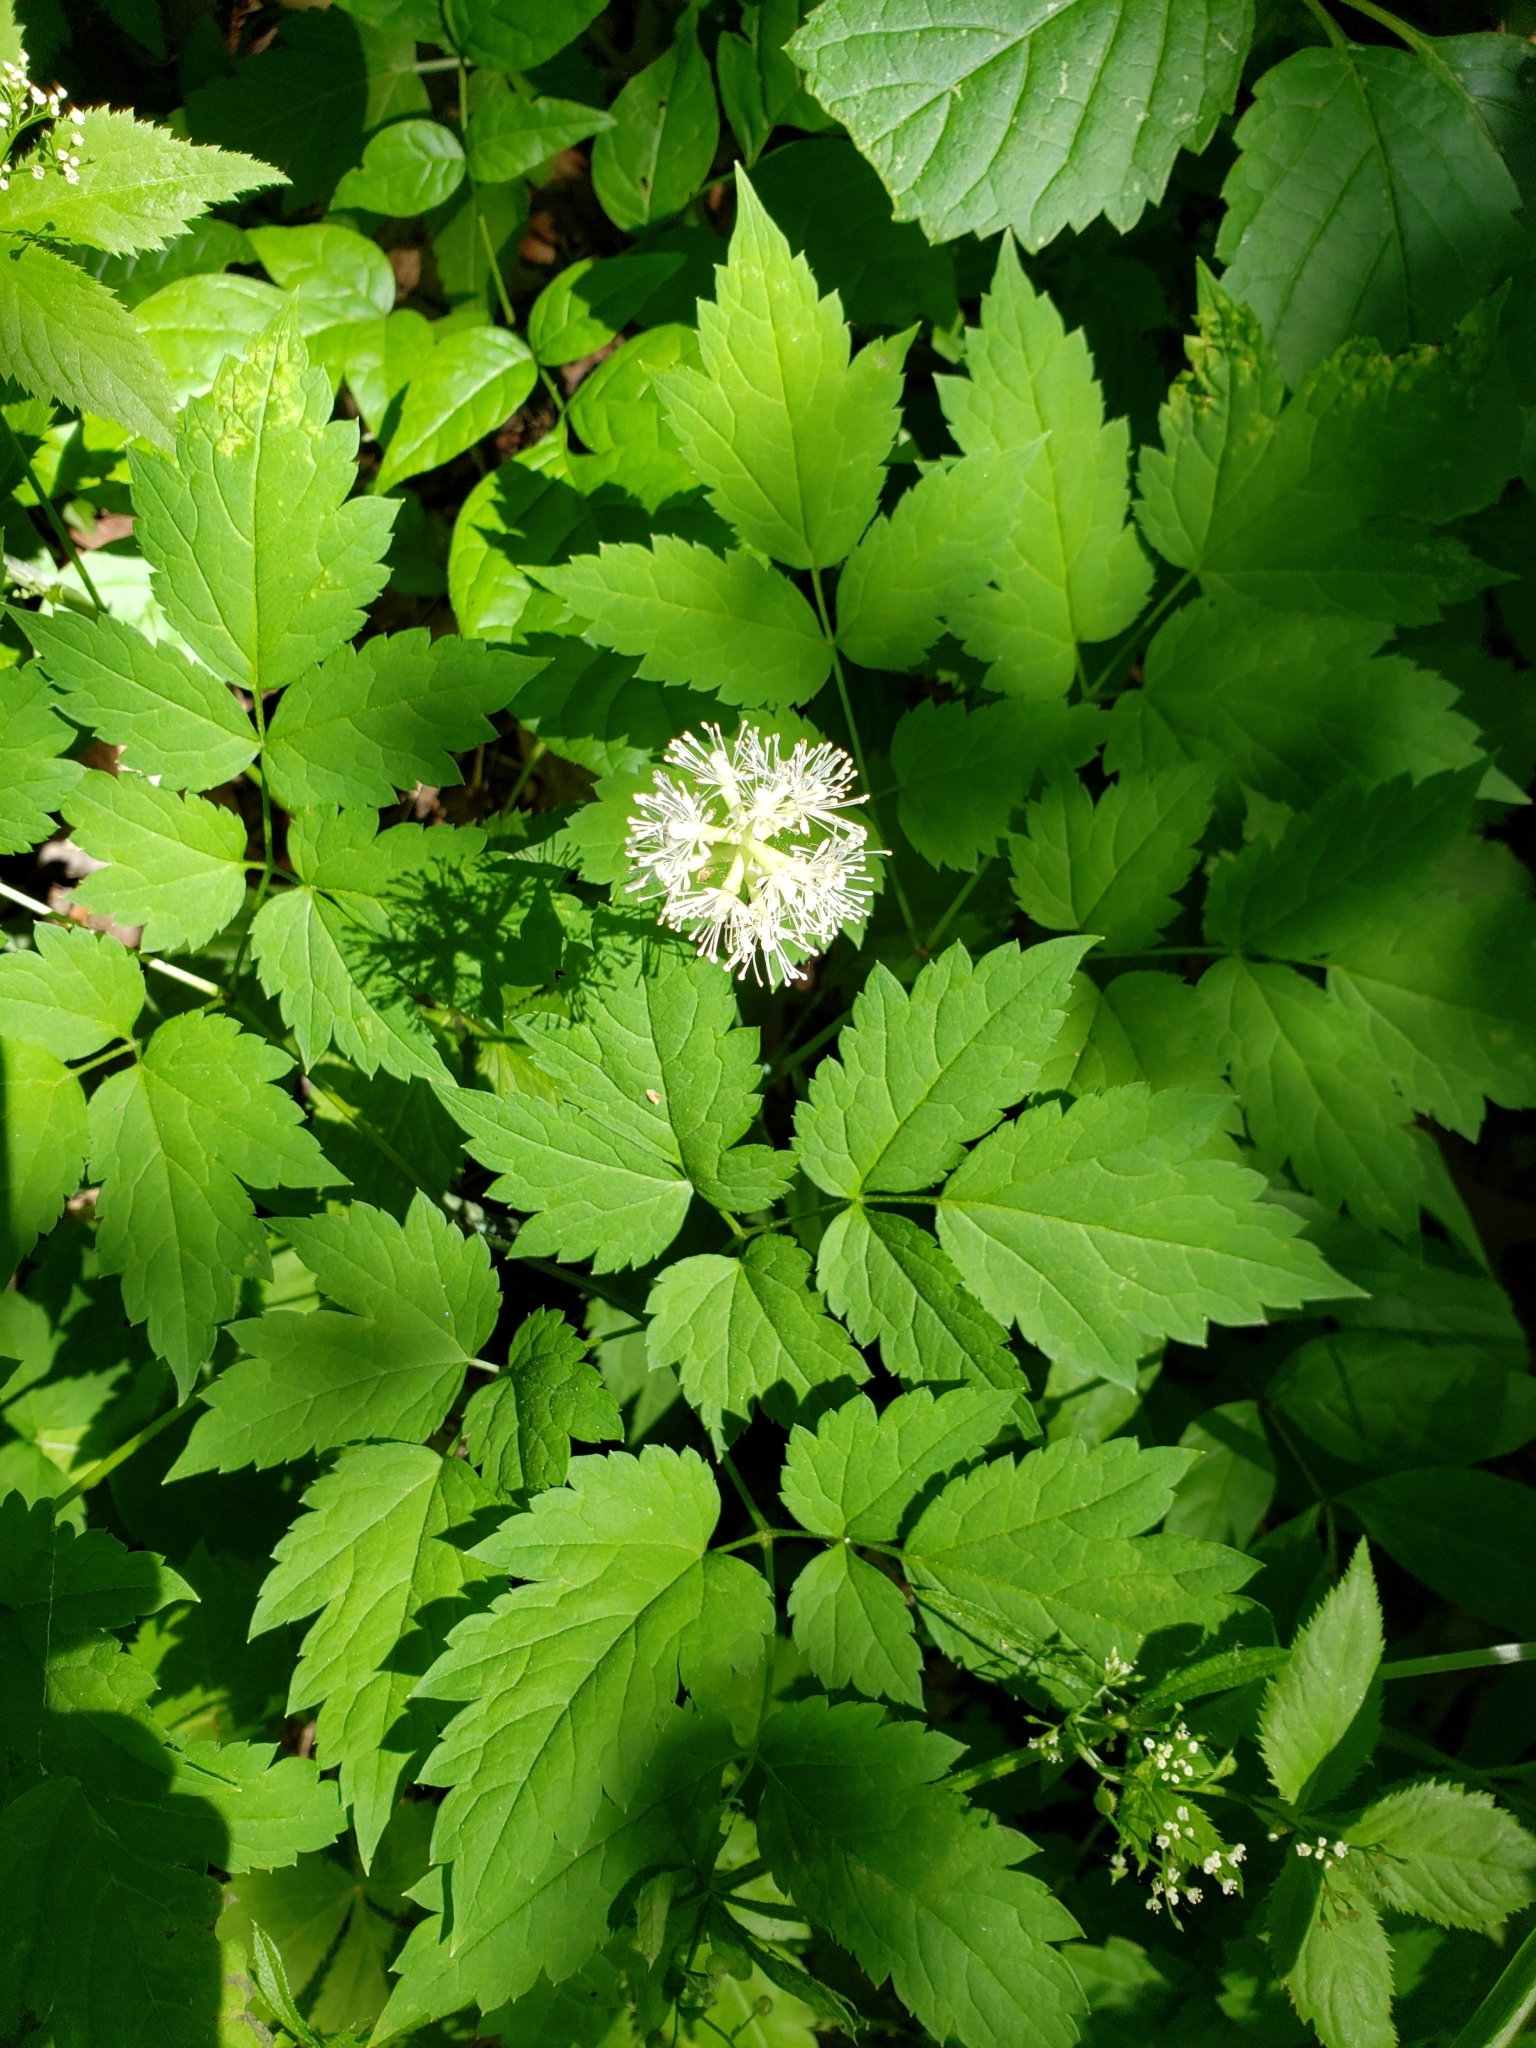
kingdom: Plantae
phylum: Tracheophyta
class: Magnoliopsida
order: Ranunculales
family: Ranunculaceae
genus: Actaea
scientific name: Actaea pachypoda
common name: Doll's-eyes
